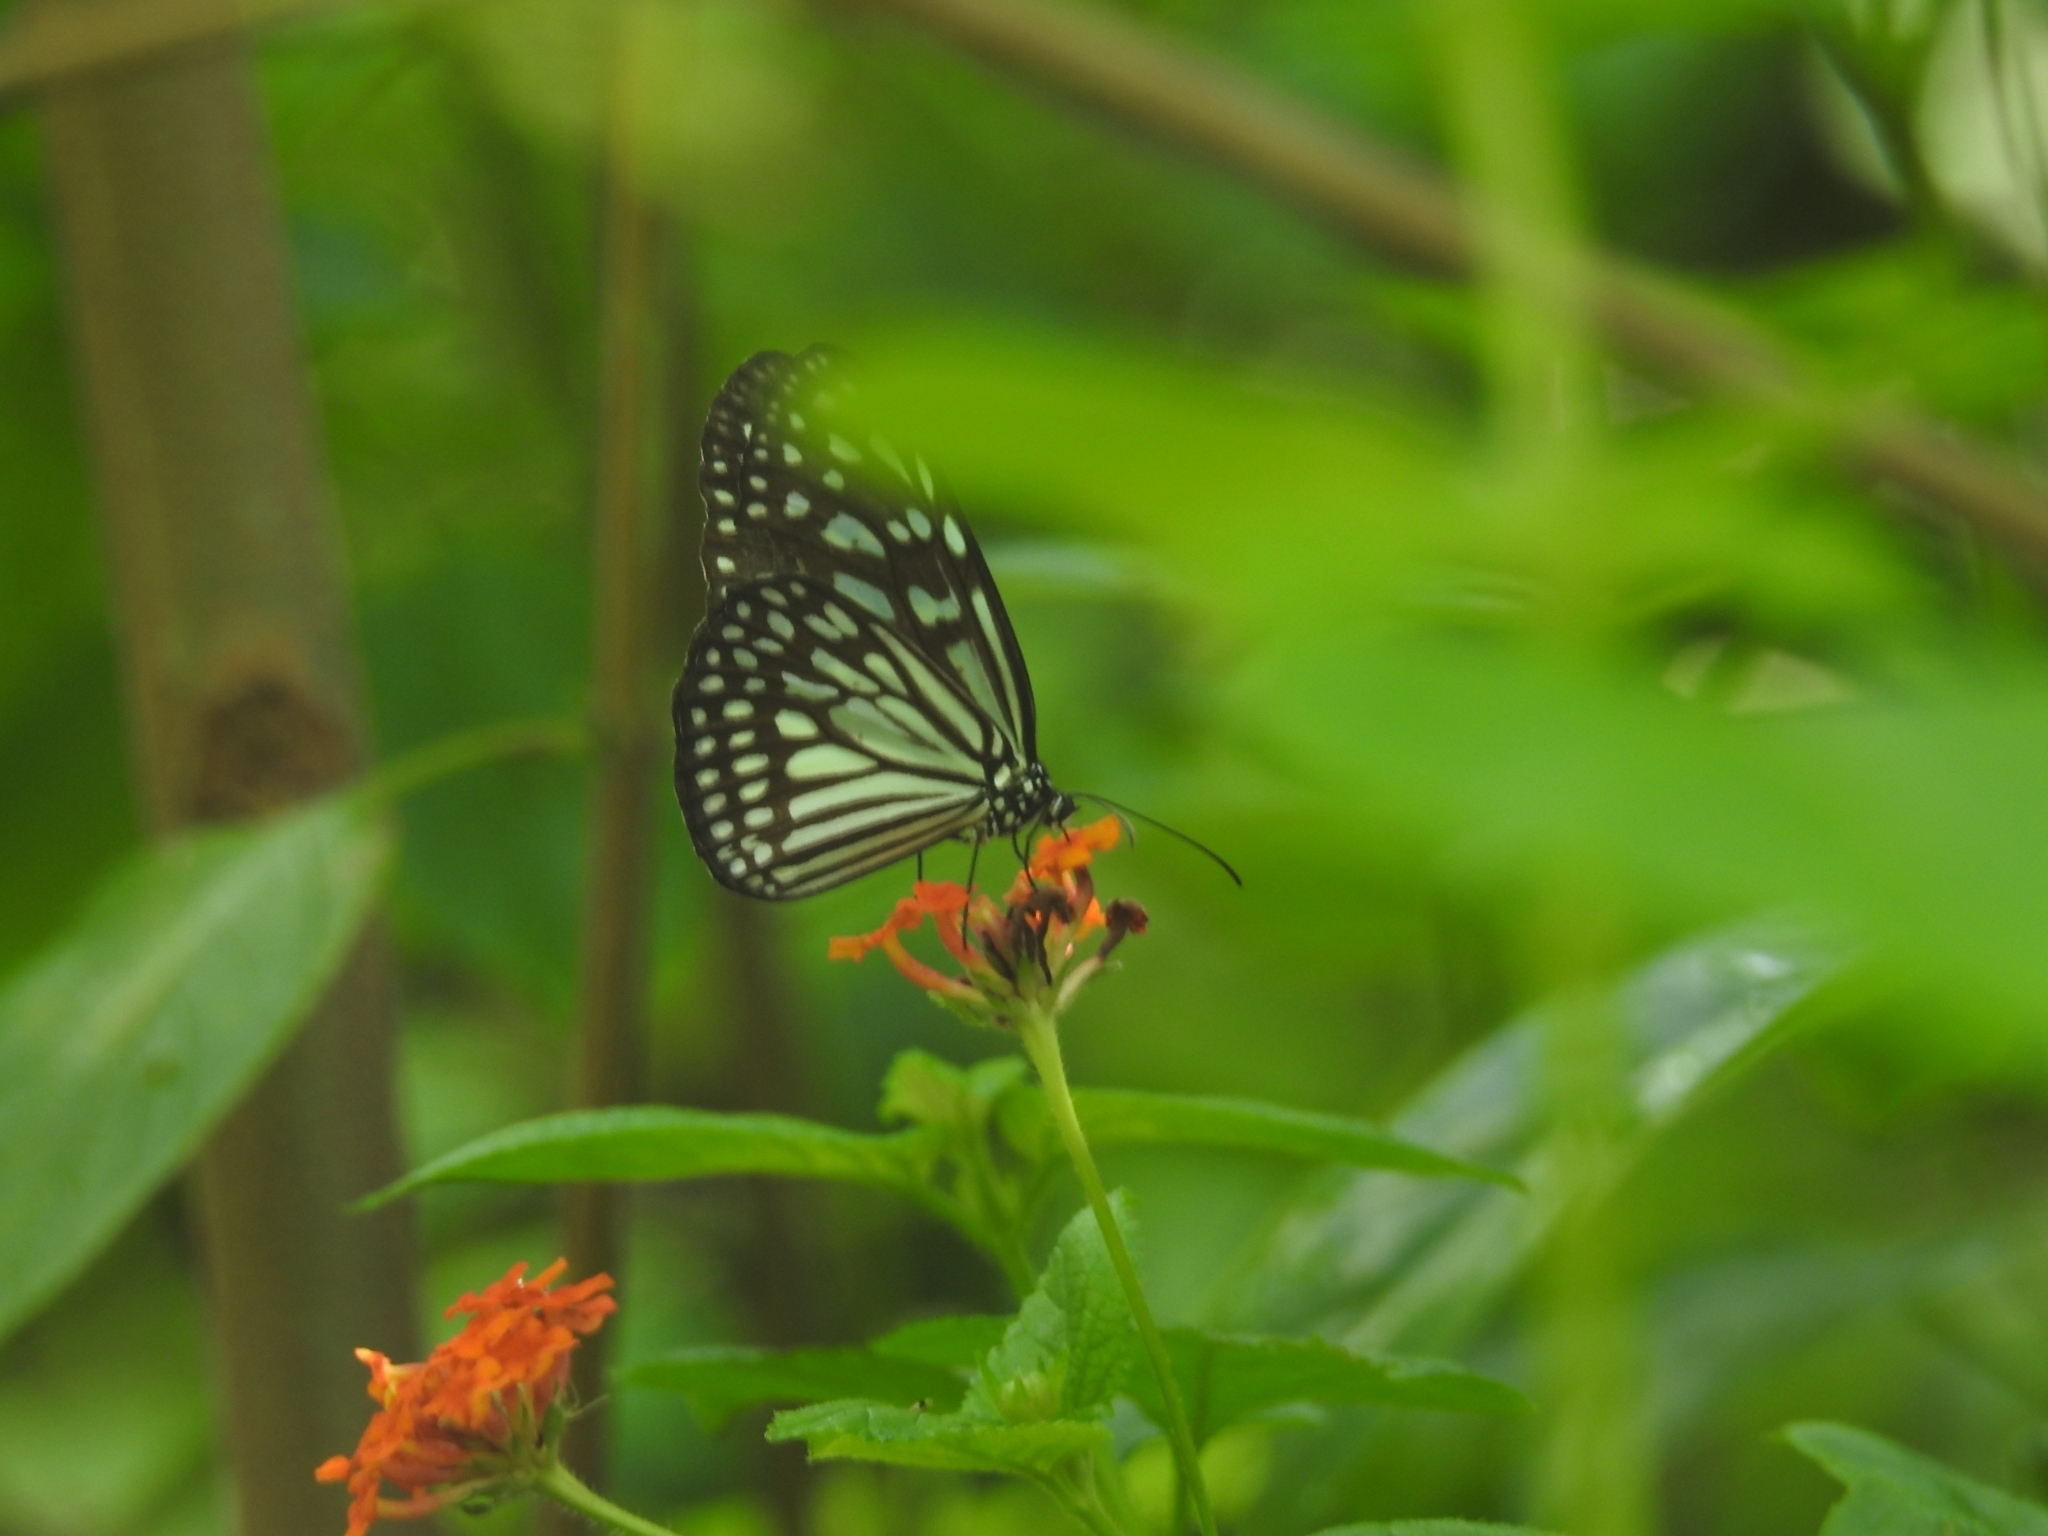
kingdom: Animalia
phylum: Arthropoda
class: Insecta
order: Lepidoptera
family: Nymphalidae
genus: Ideopsis
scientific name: Ideopsis juventa
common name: Grey glassy tiger
